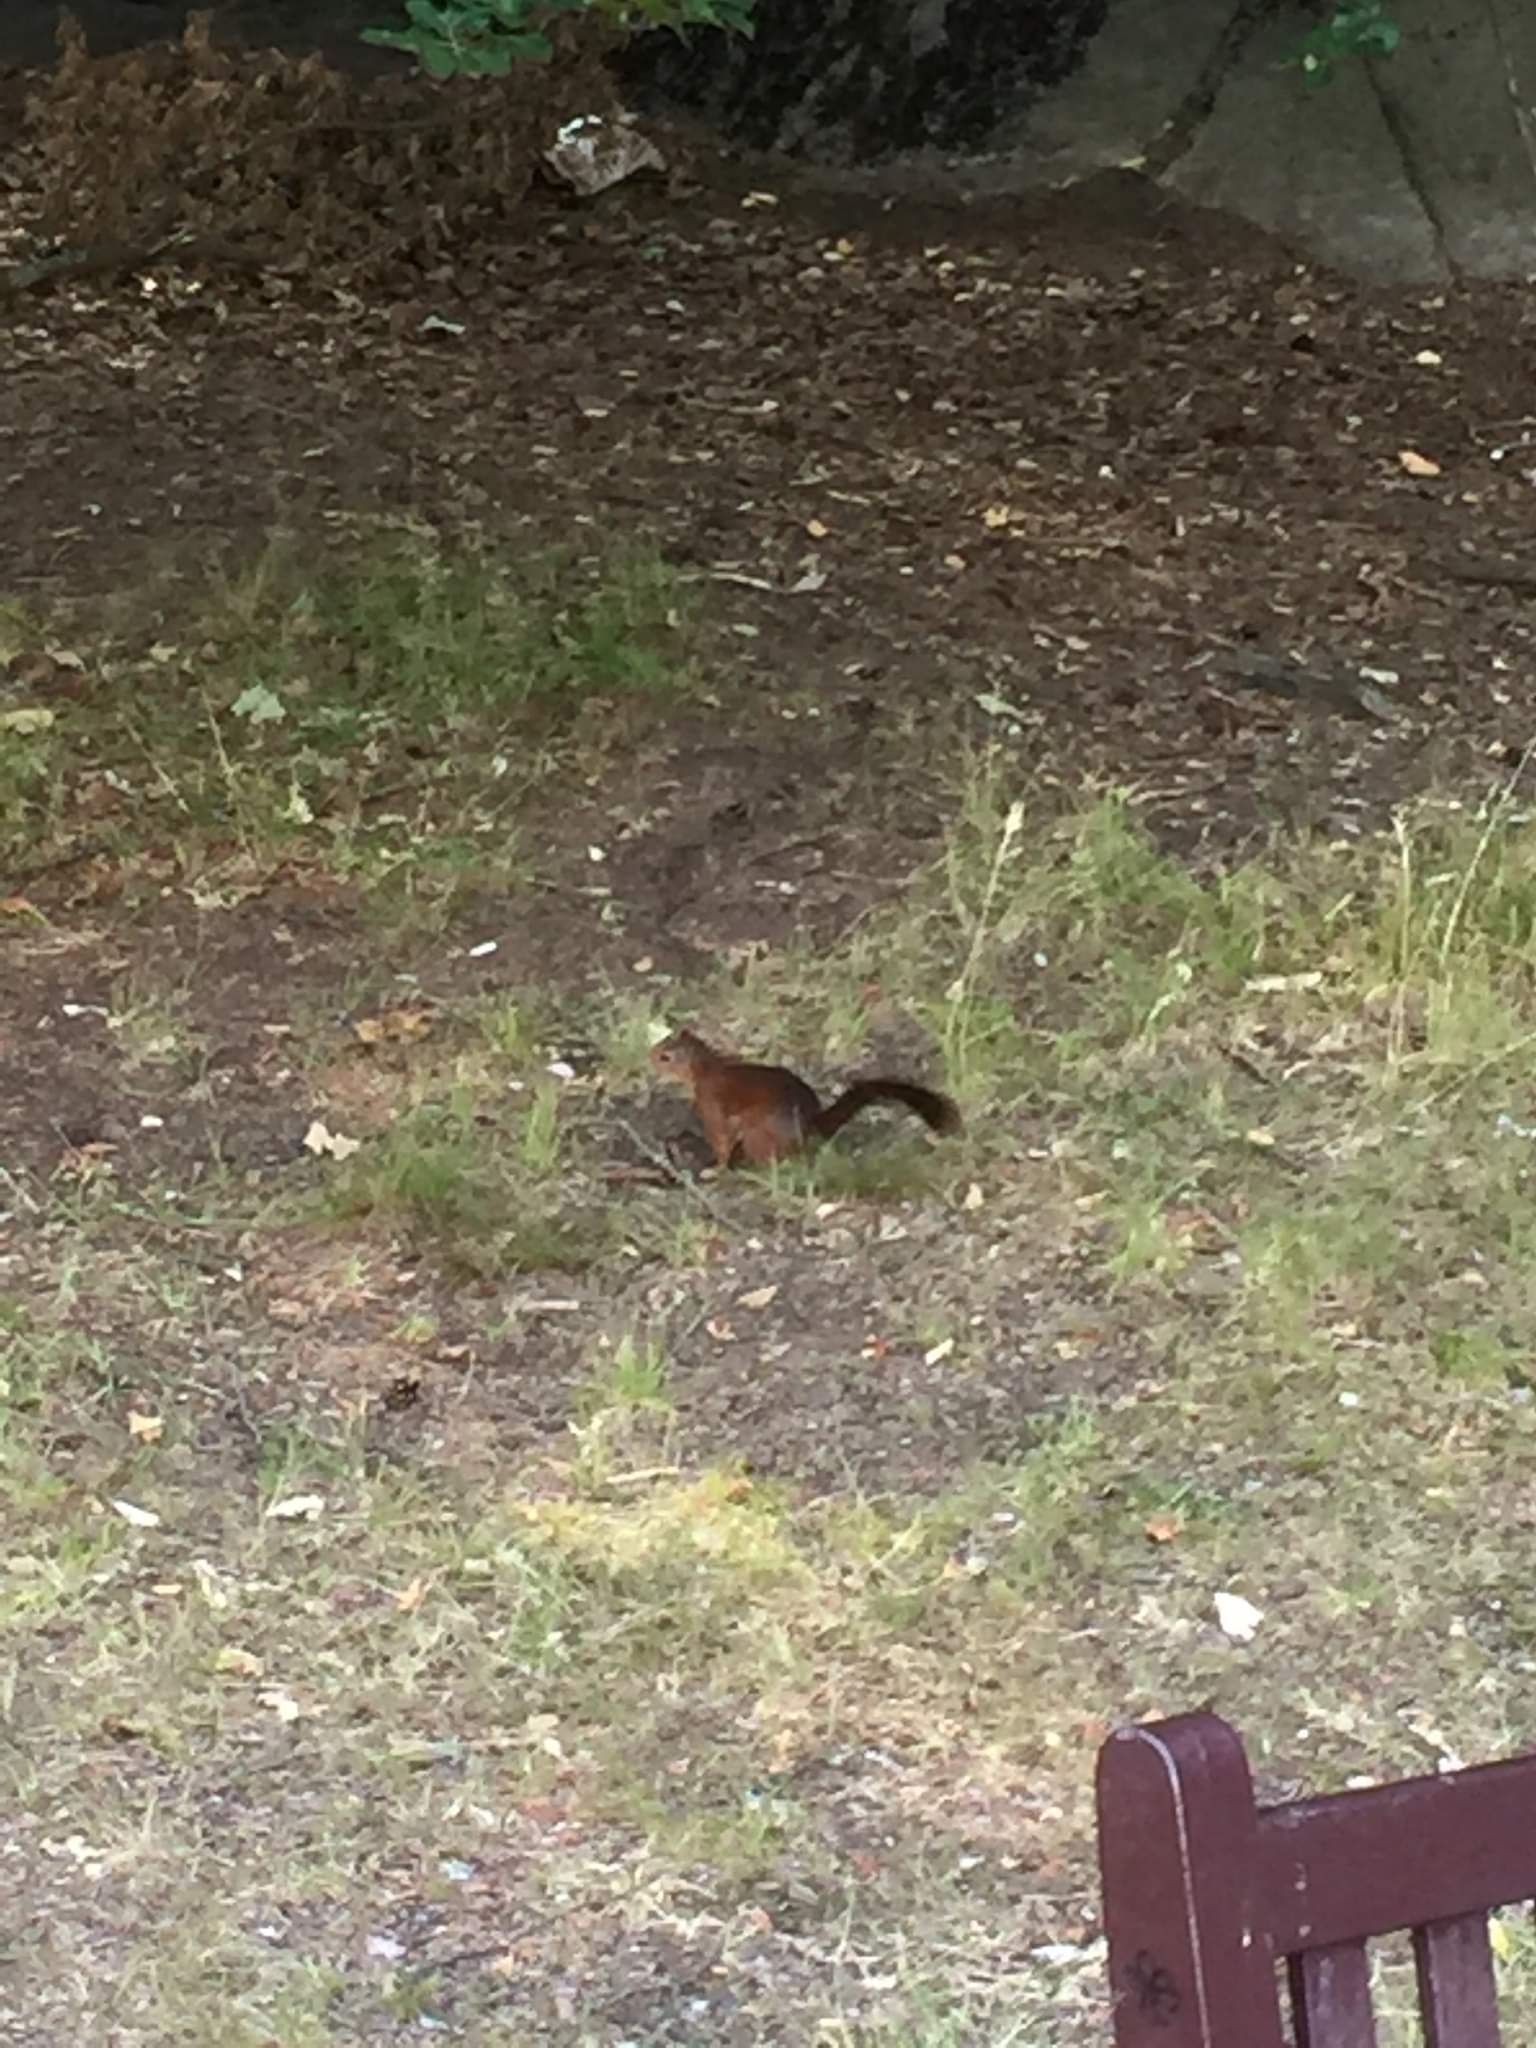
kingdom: Animalia
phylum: Chordata
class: Mammalia
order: Rodentia
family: Sciuridae
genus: Sciurus
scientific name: Sciurus vulgaris
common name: Eurasian red squirrel
